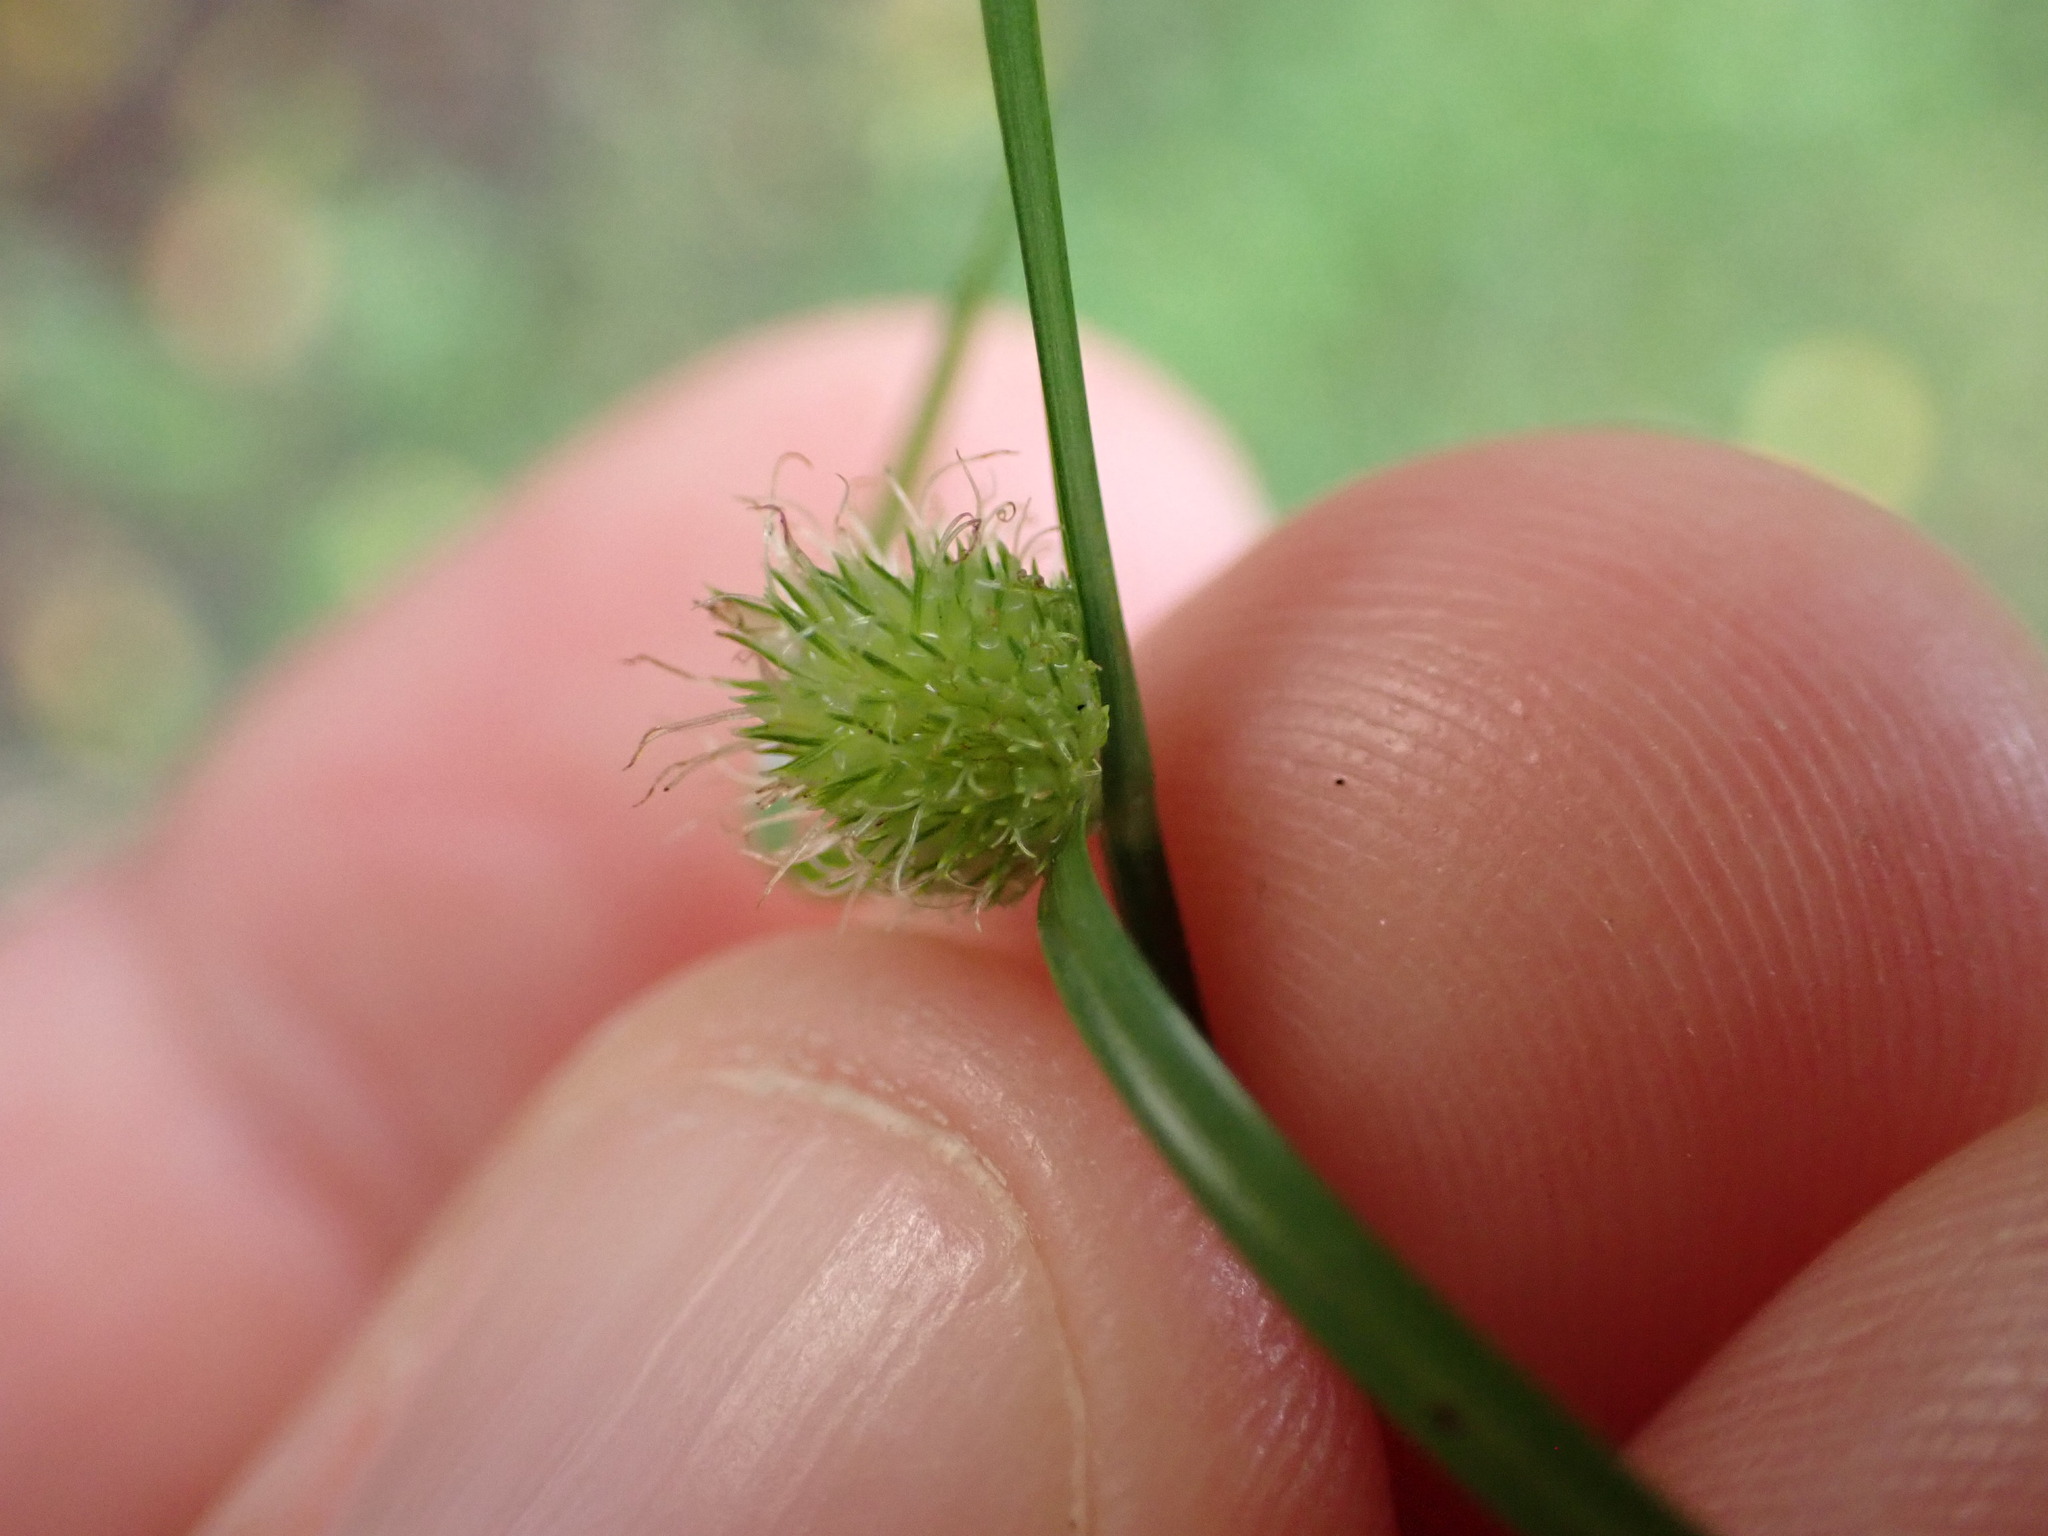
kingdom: Plantae
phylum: Tracheophyta
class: Liliopsida
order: Poales
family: Cyperaceae
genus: Cyperus
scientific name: Cyperus brevifolius
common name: Globe kyllinga
